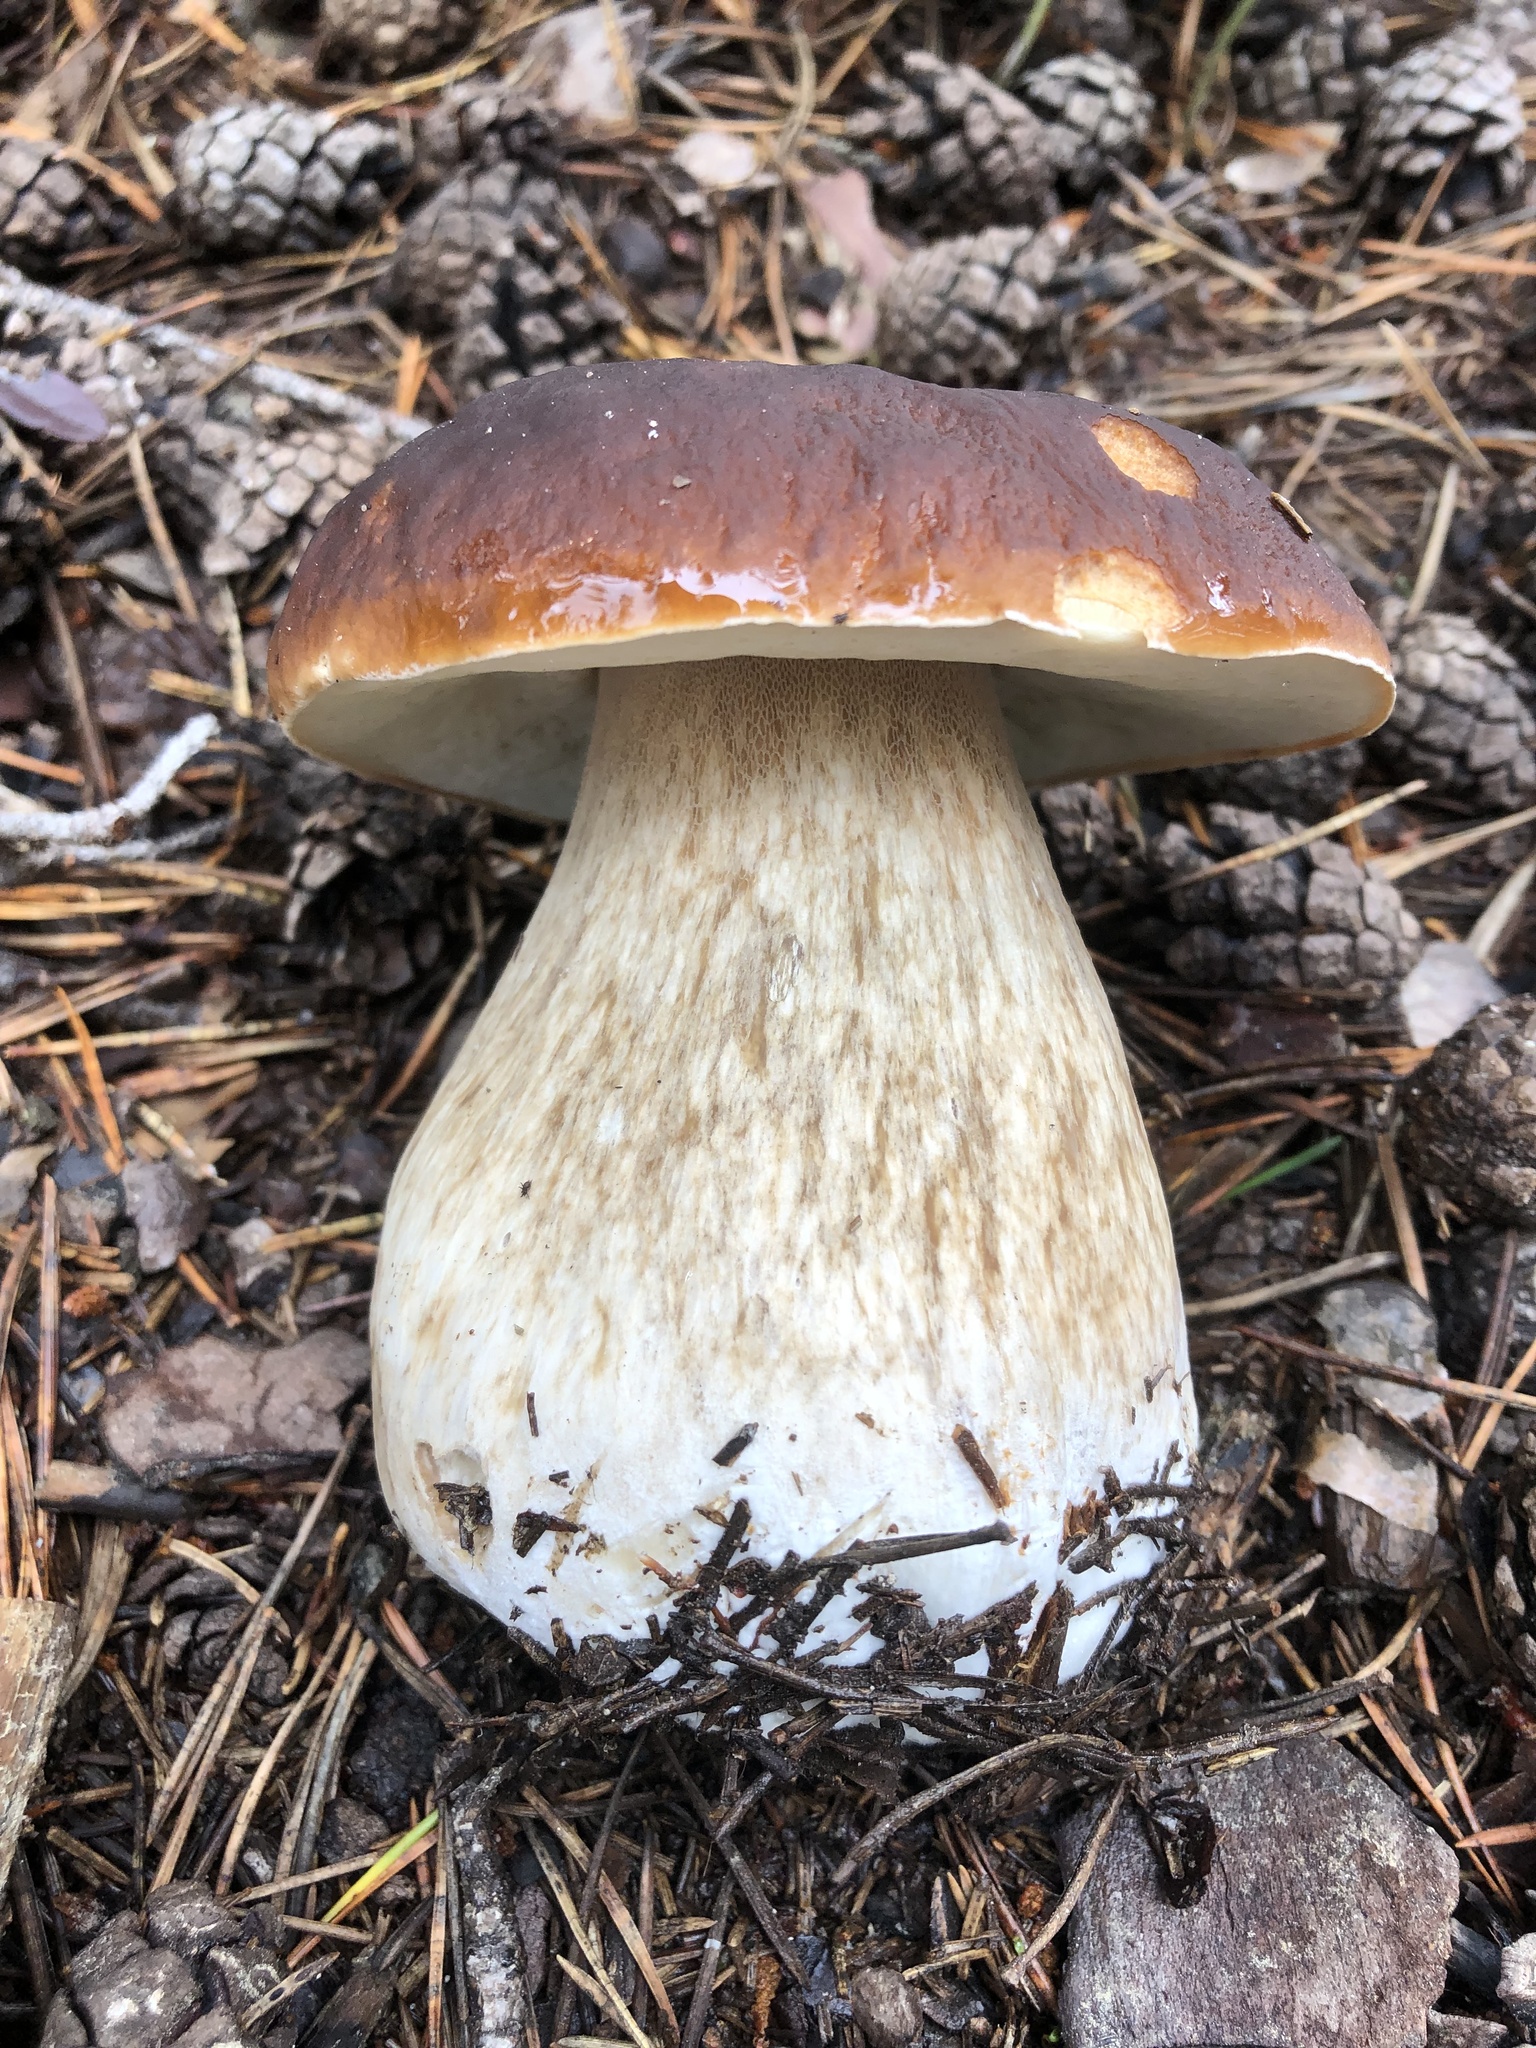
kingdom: Fungi
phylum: Basidiomycota
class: Agaricomycetes
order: Boletales
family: Boletaceae
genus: Boletus
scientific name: Boletus edulis
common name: Cep
